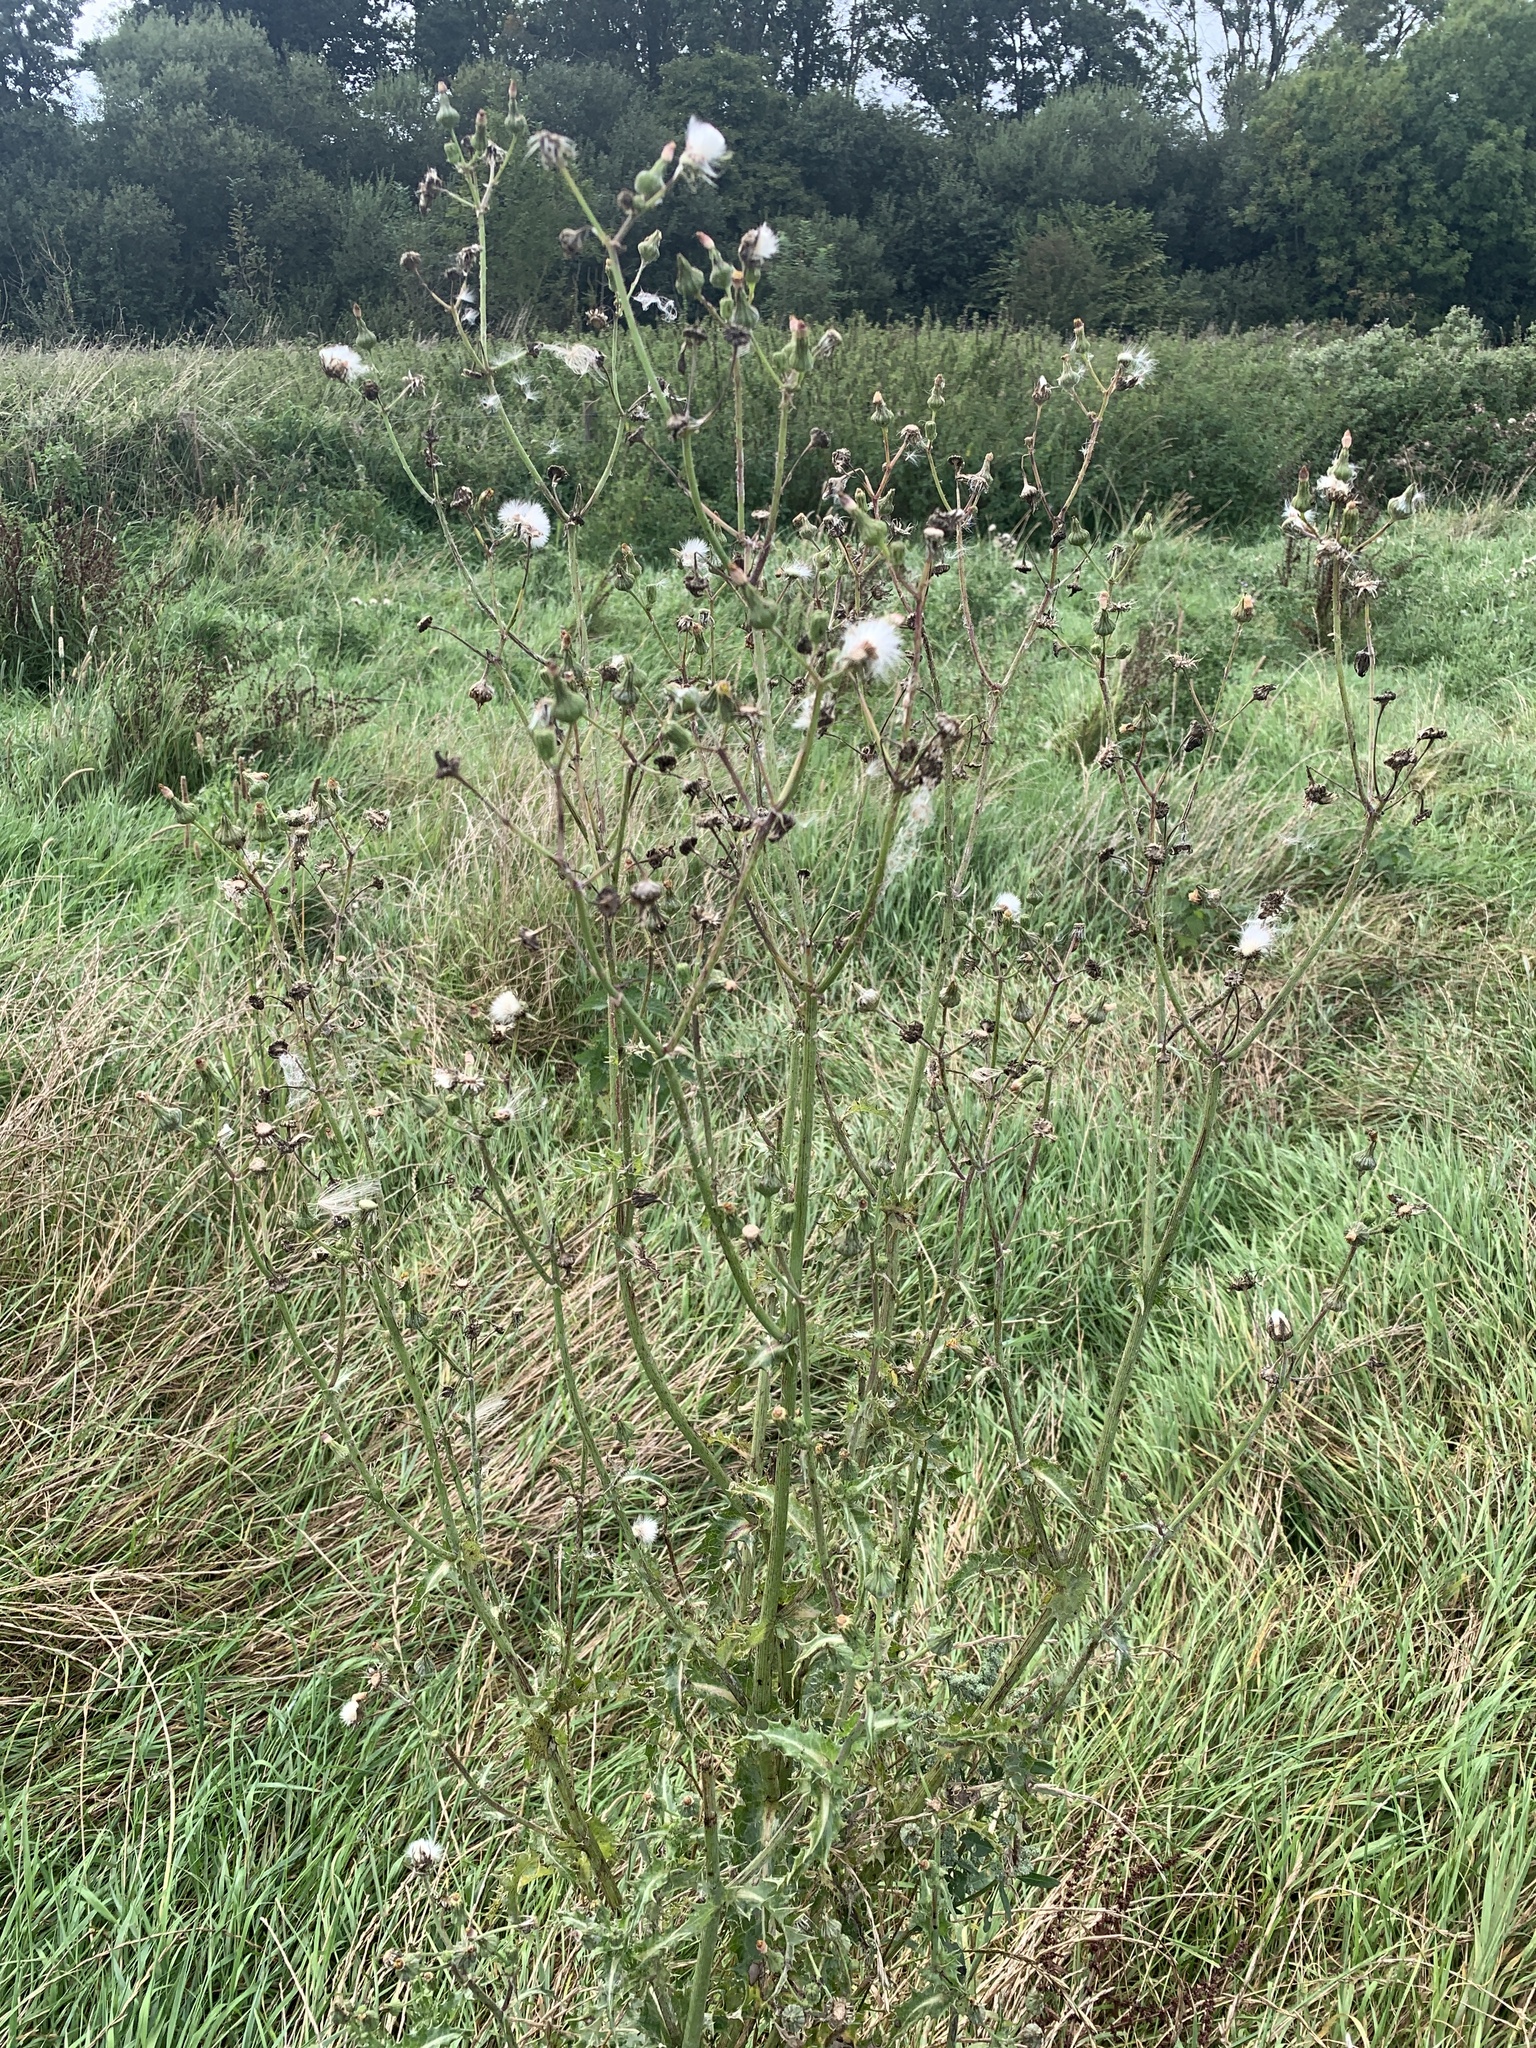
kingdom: Plantae
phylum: Tracheophyta
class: Magnoliopsida
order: Asterales
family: Asteraceae
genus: Sonchus
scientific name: Sonchus asper
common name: Prickly sow-thistle
